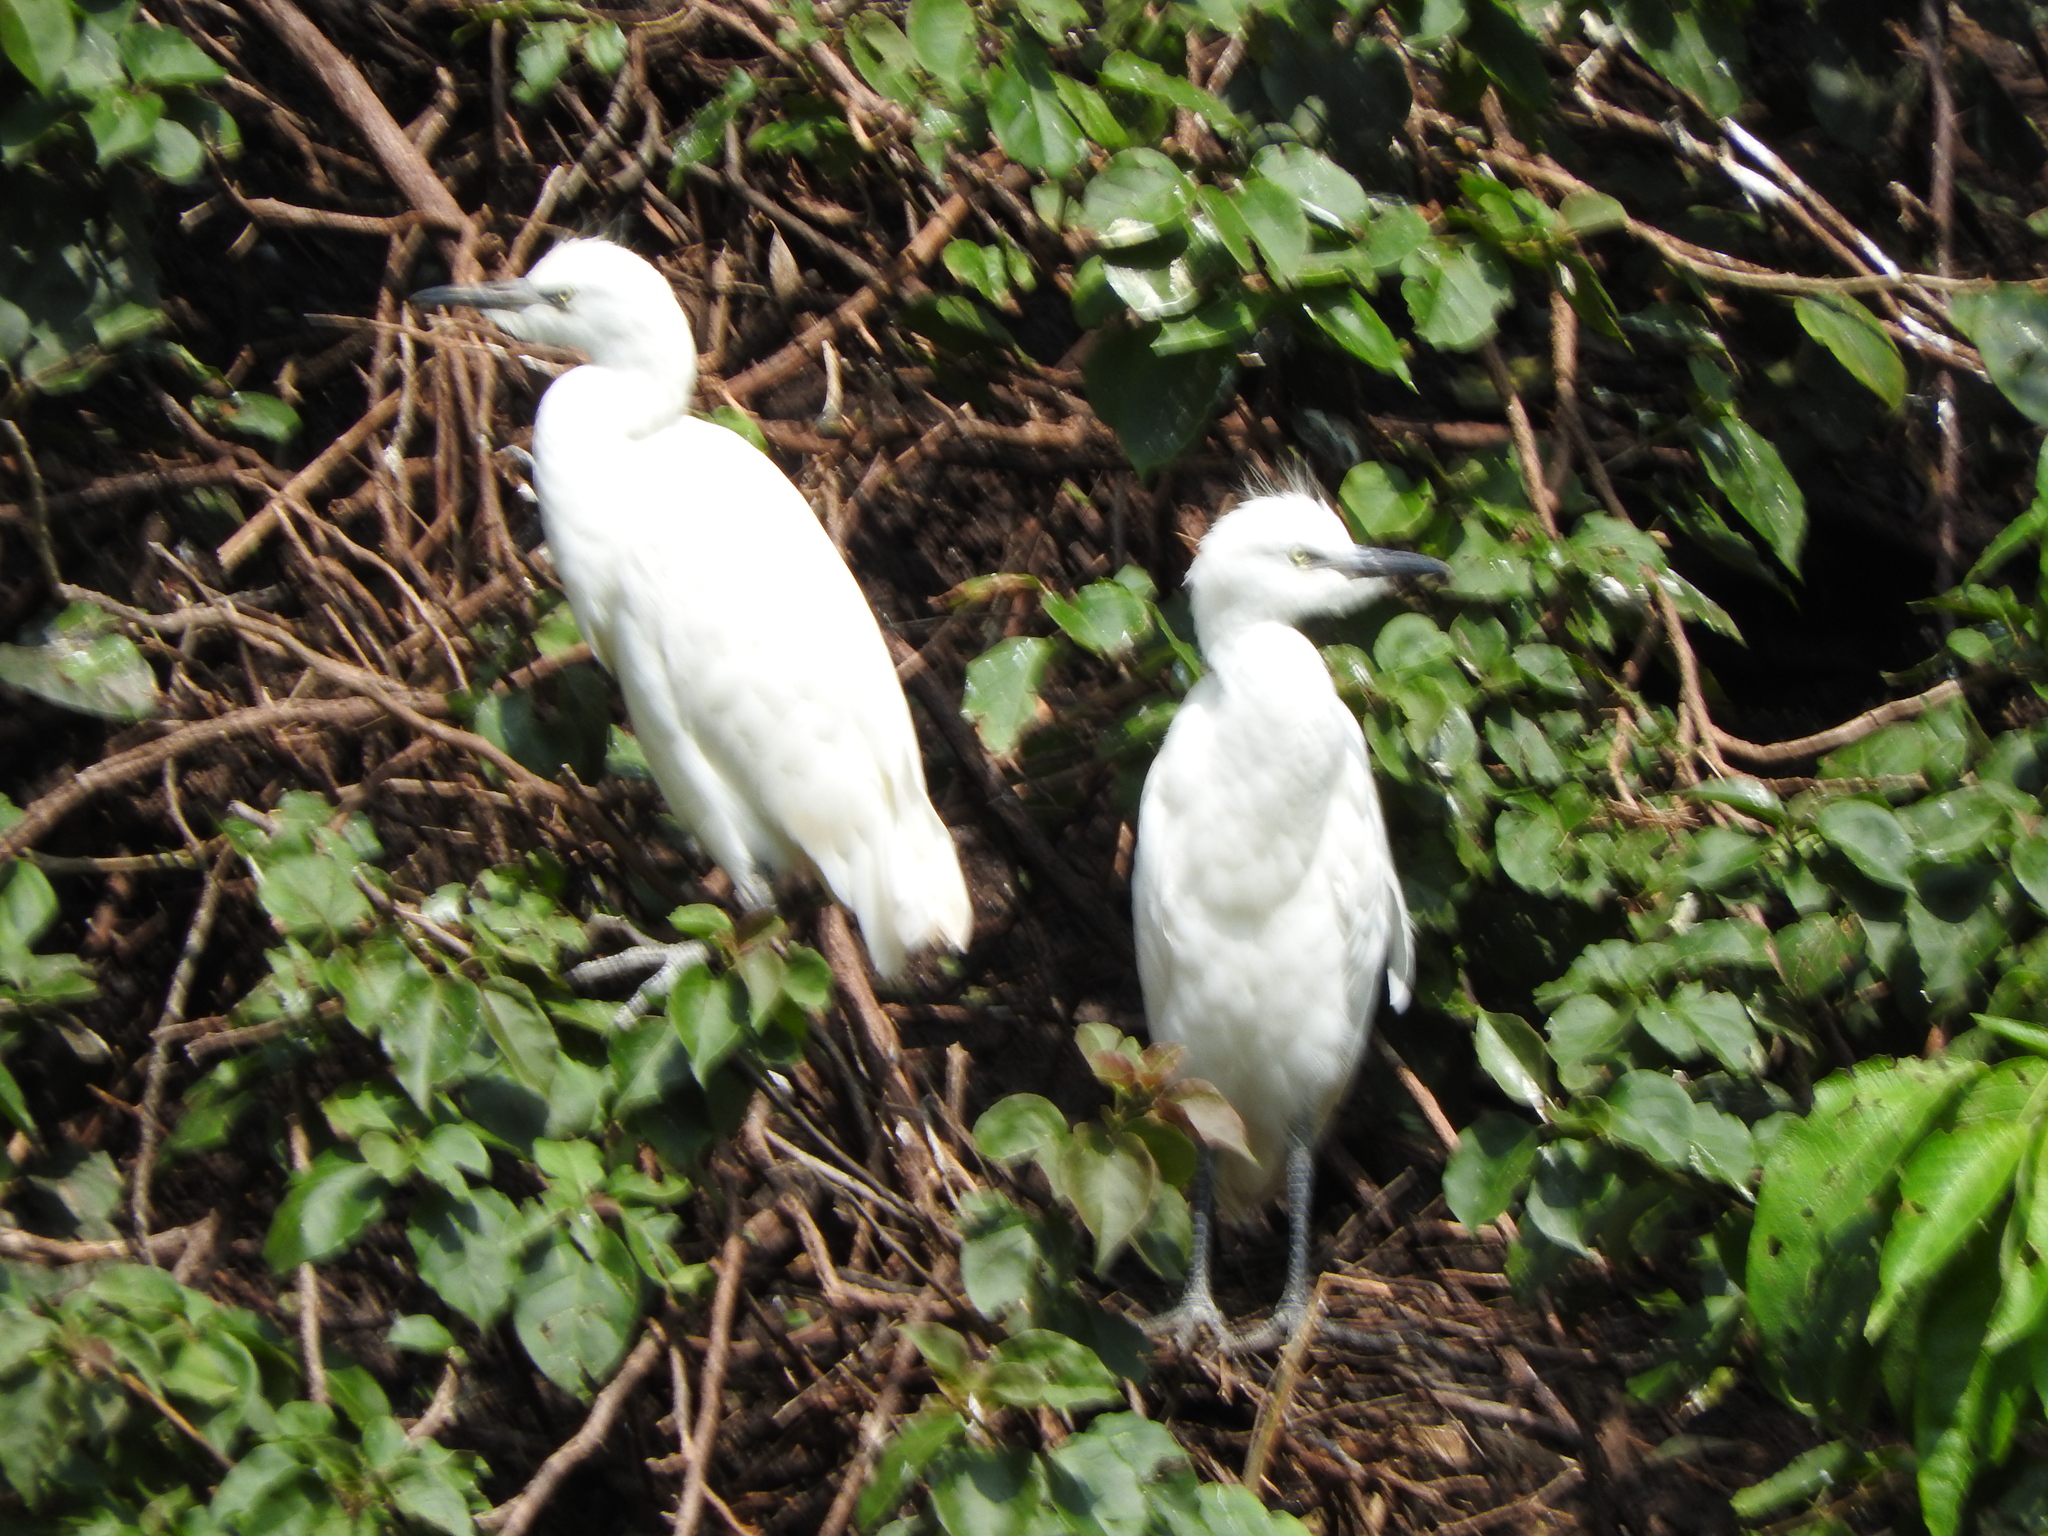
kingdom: Animalia
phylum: Chordata
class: Aves
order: Pelecaniformes
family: Ardeidae
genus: Bubulcus
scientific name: Bubulcus ibis
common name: Cattle egret
